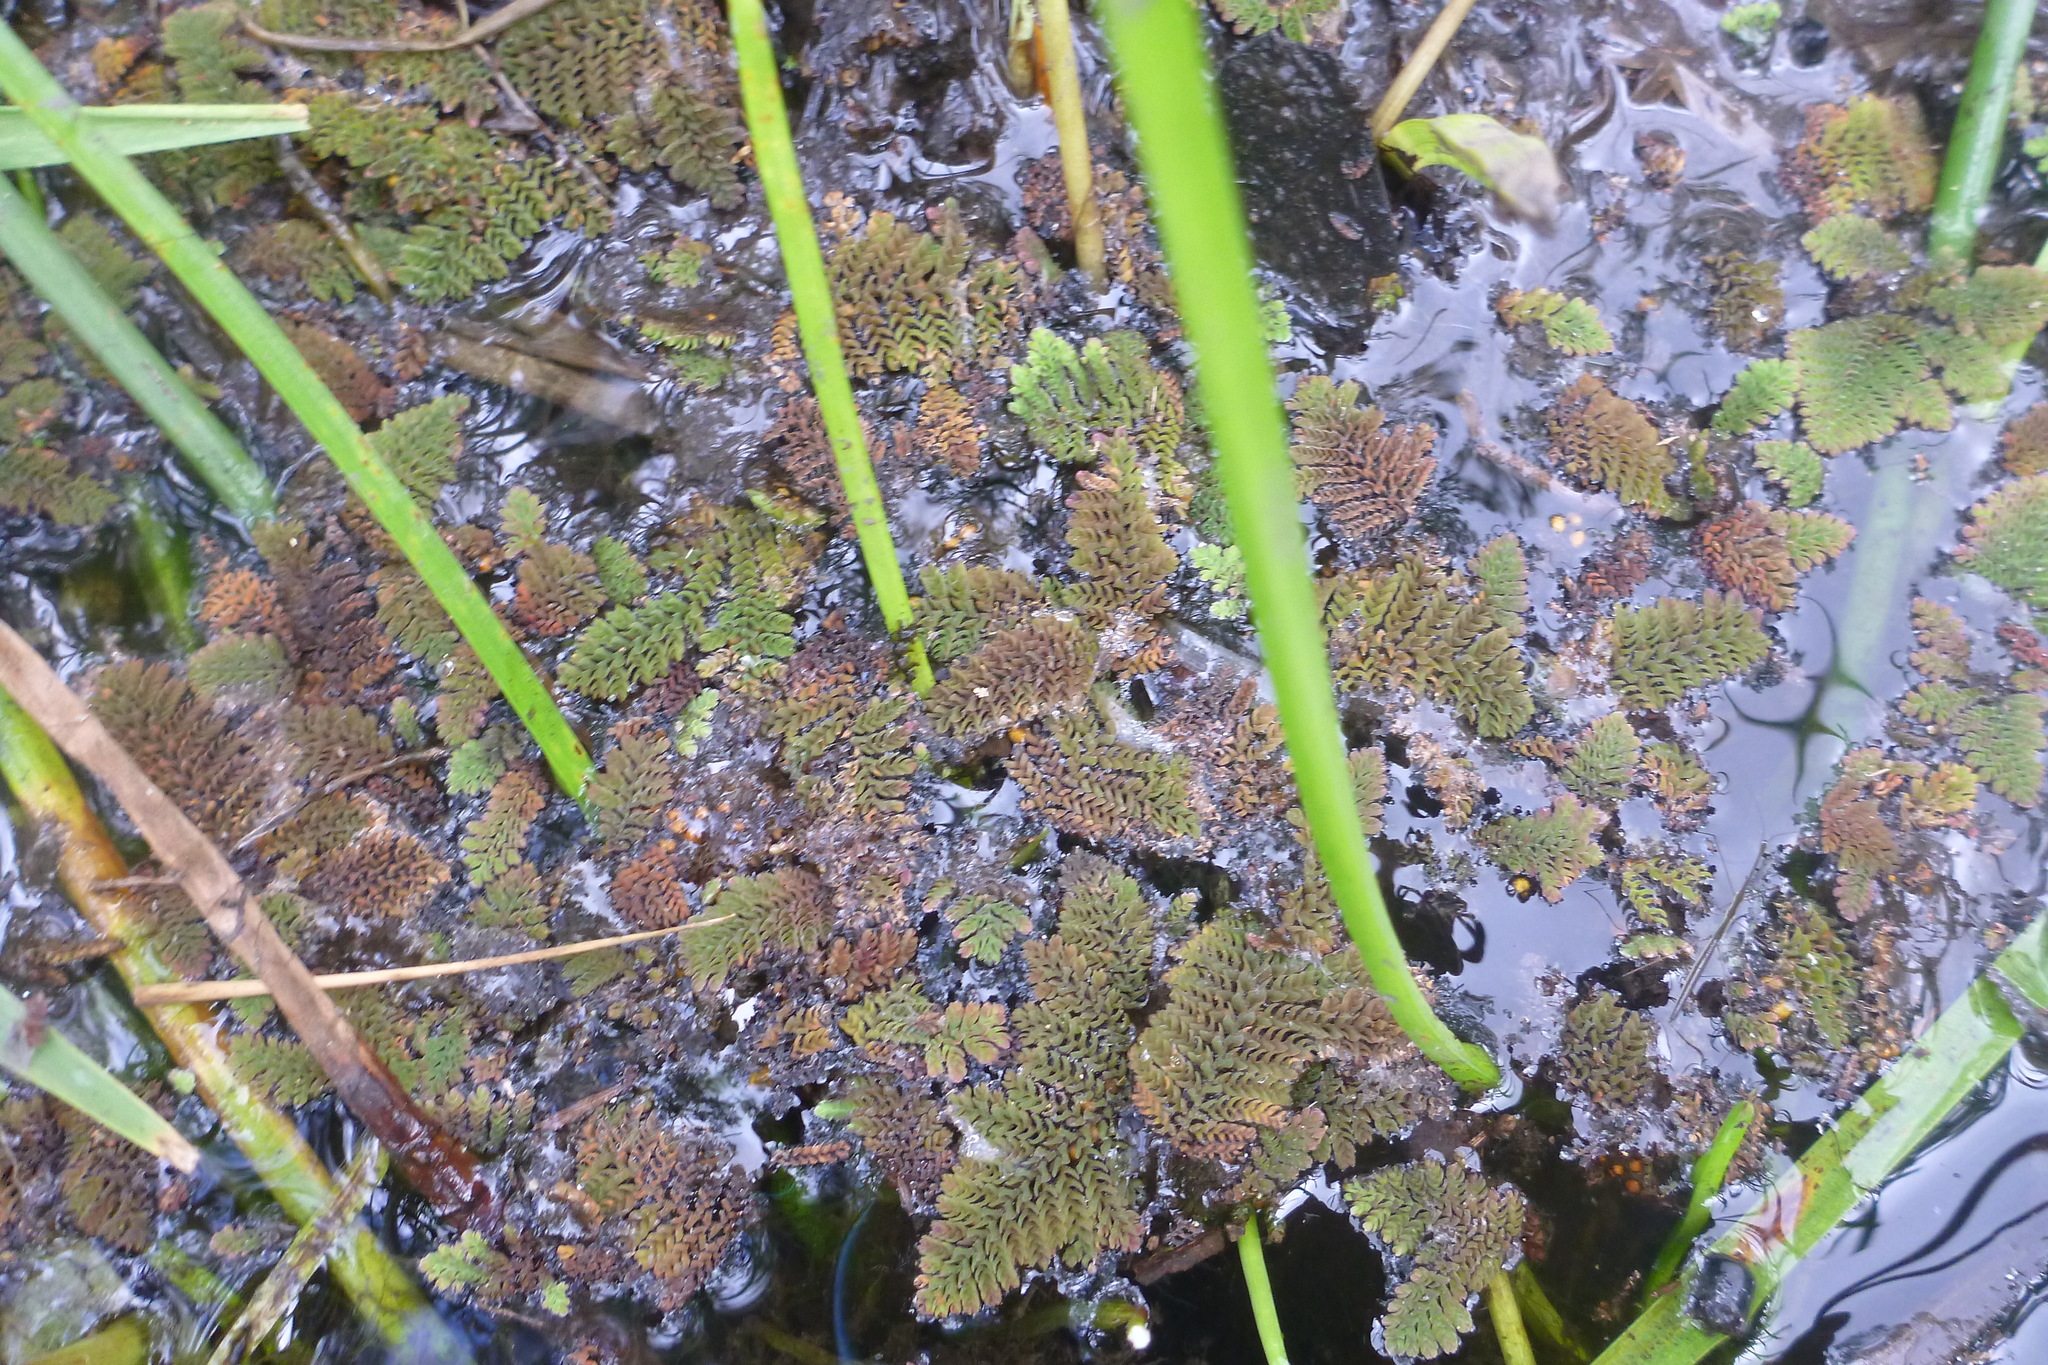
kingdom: Plantae
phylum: Tracheophyta
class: Polypodiopsida
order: Salviniales
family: Salviniaceae
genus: Azolla
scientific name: Azolla pinnata
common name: Ferny azolla
